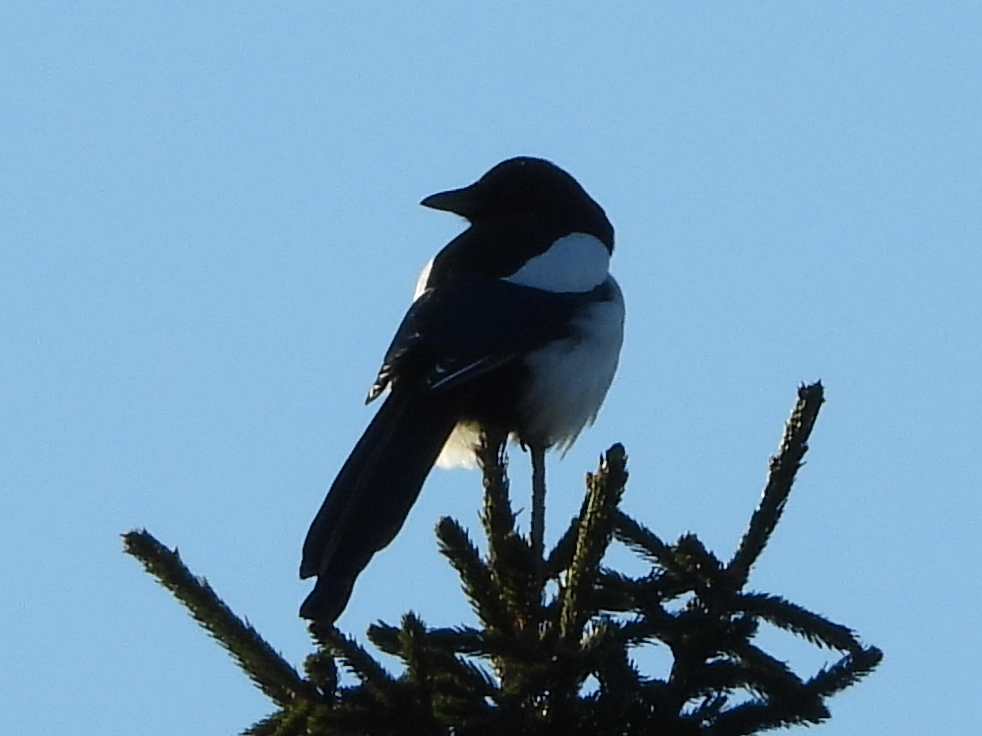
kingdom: Animalia
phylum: Chordata
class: Aves
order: Passeriformes
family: Corvidae
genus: Pica
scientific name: Pica pica
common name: Eurasian magpie
